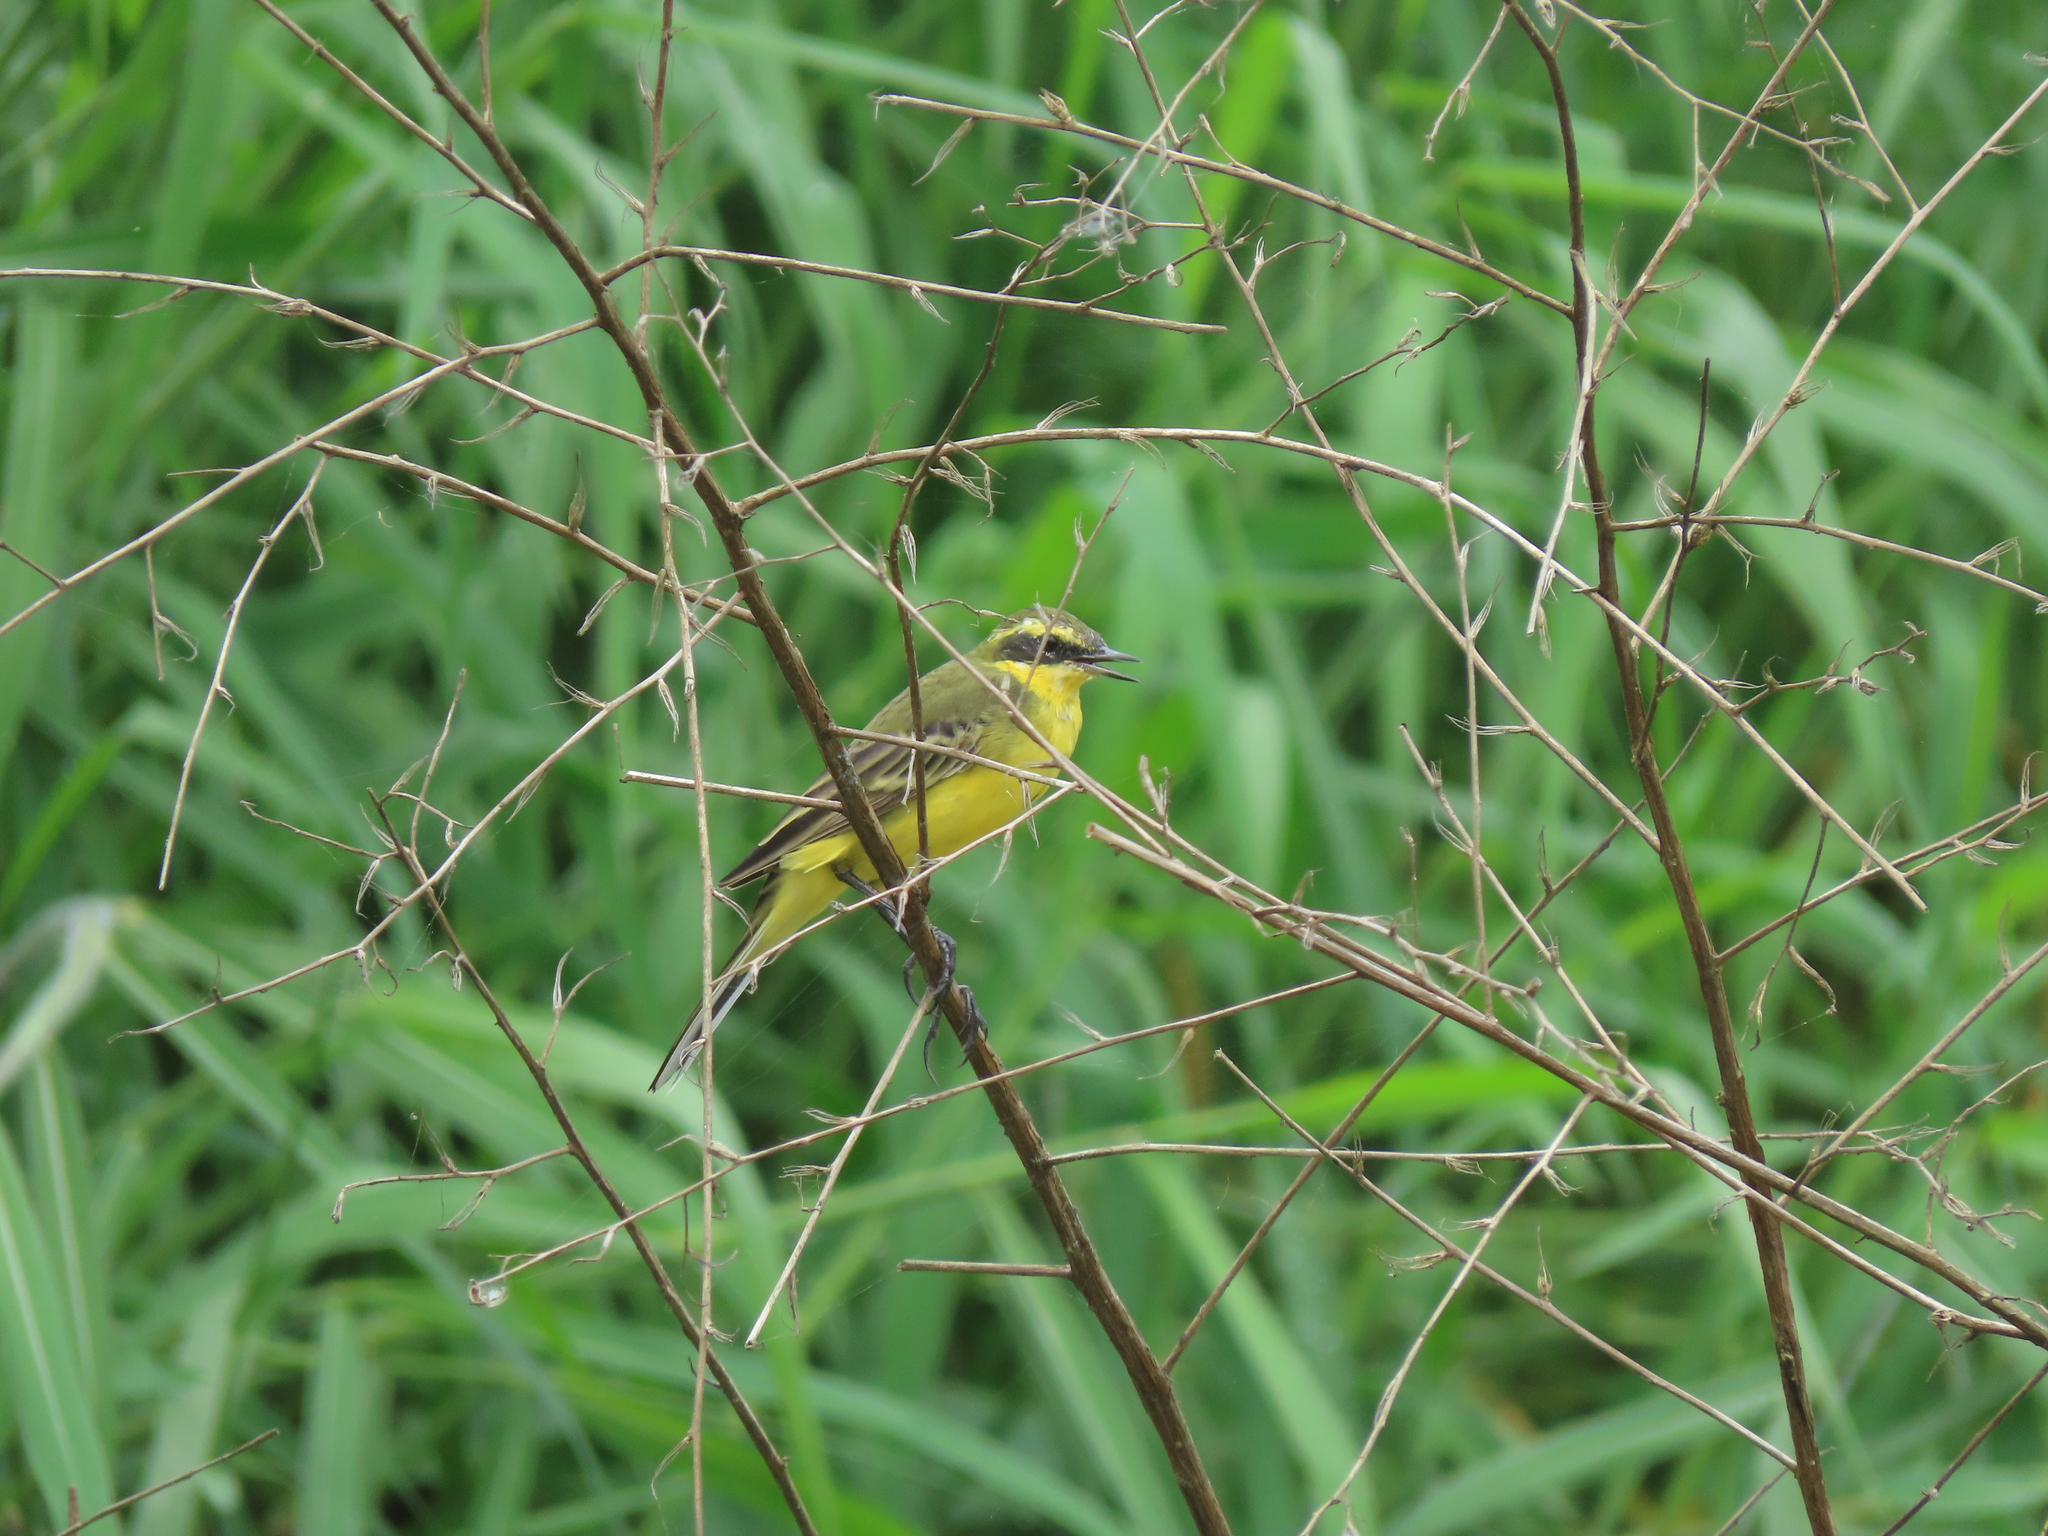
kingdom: Animalia
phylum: Chordata
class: Aves
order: Passeriformes
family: Motacillidae
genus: Motacilla
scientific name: Motacilla tschutschensis
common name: Eastern yellow wagtail
